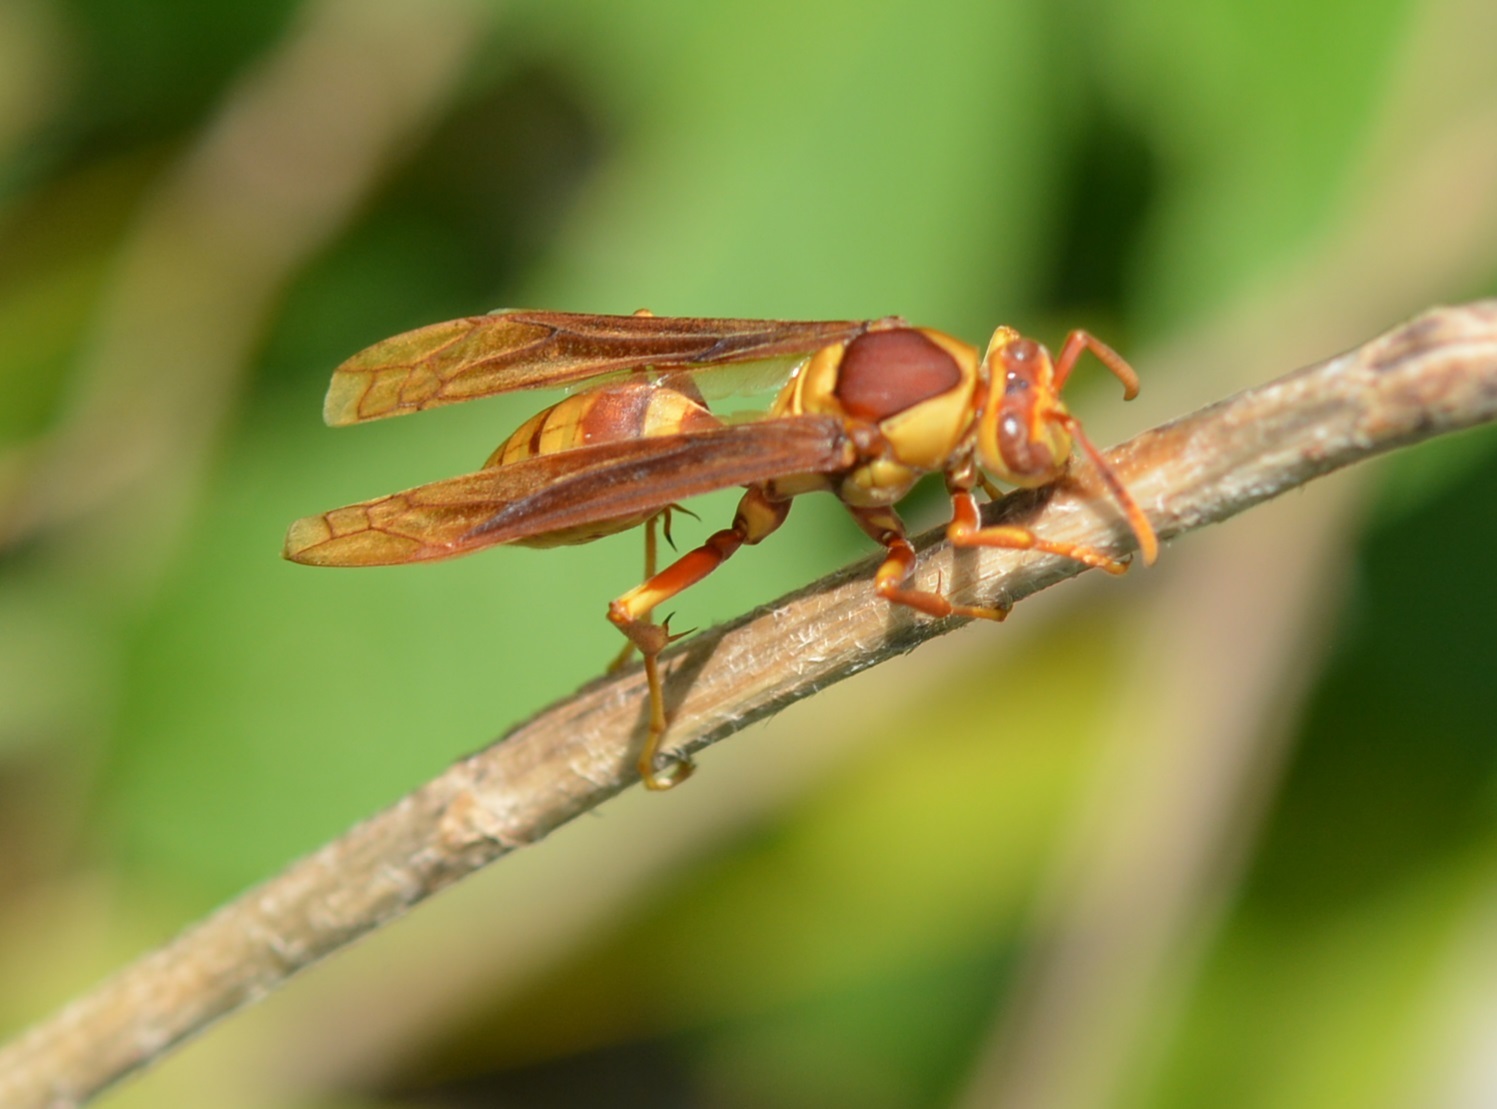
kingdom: Animalia
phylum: Arthropoda
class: Insecta
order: Hymenoptera
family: Eumenidae
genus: Polistes
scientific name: Polistes carnifex
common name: Paper wasp
